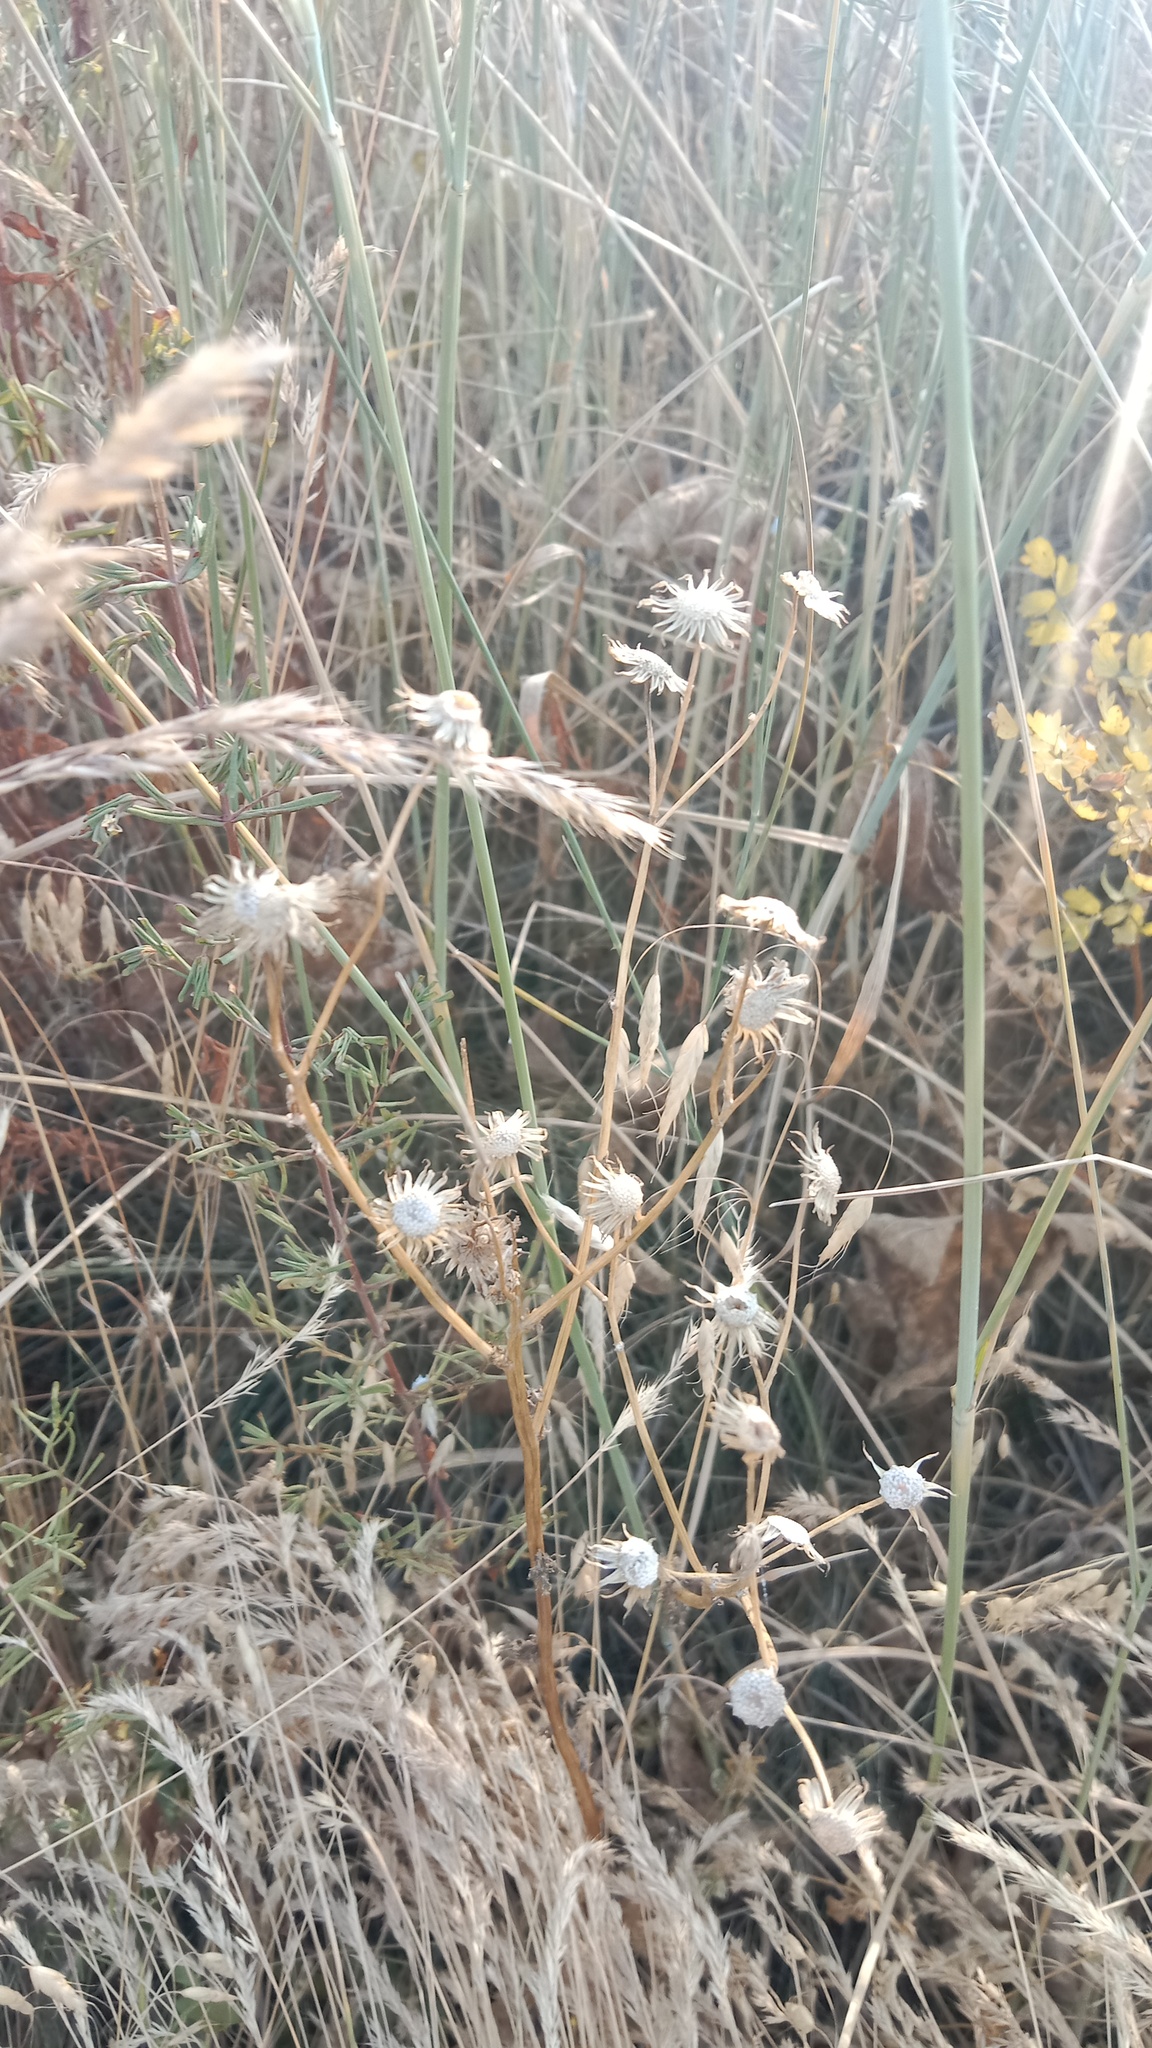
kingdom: Plantae
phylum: Tracheophyta
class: Magnoliopsida
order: Asterales
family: Asteraceae
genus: Senecio
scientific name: Senecio vernalis
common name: Eastern groundsel
